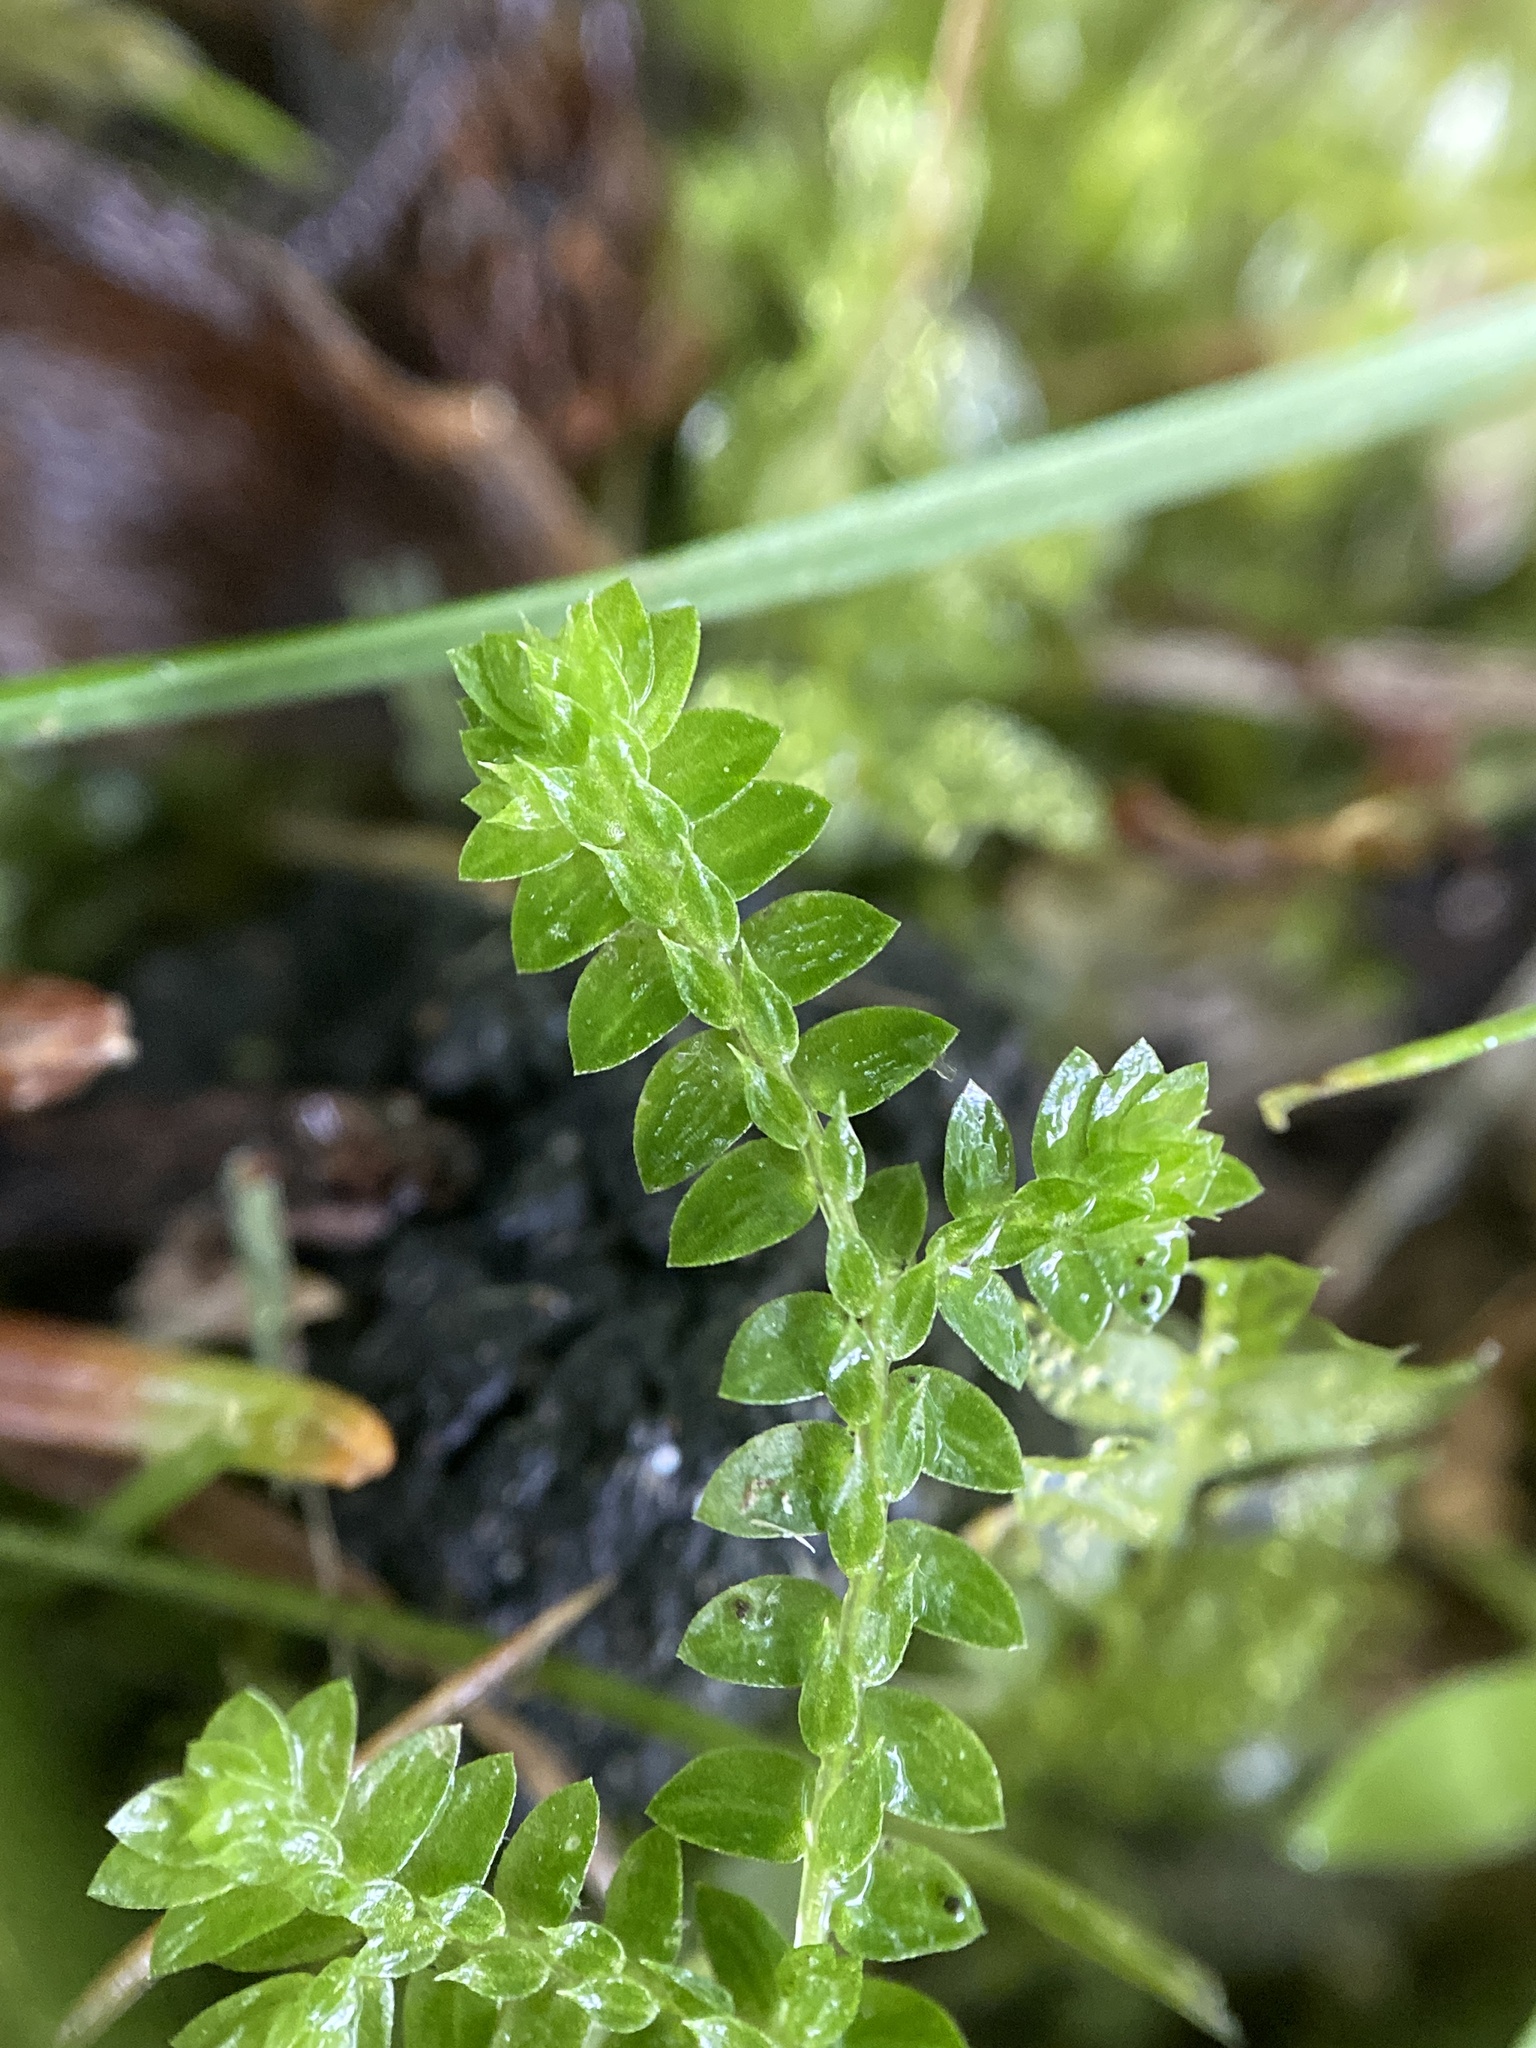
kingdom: Plantae
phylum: Tracheophyta
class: Lycopodiopsida
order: Selaginellales
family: Selaginellaceae
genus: Selaginella
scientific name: Selaginella apoda
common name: Creeping spikemoss
